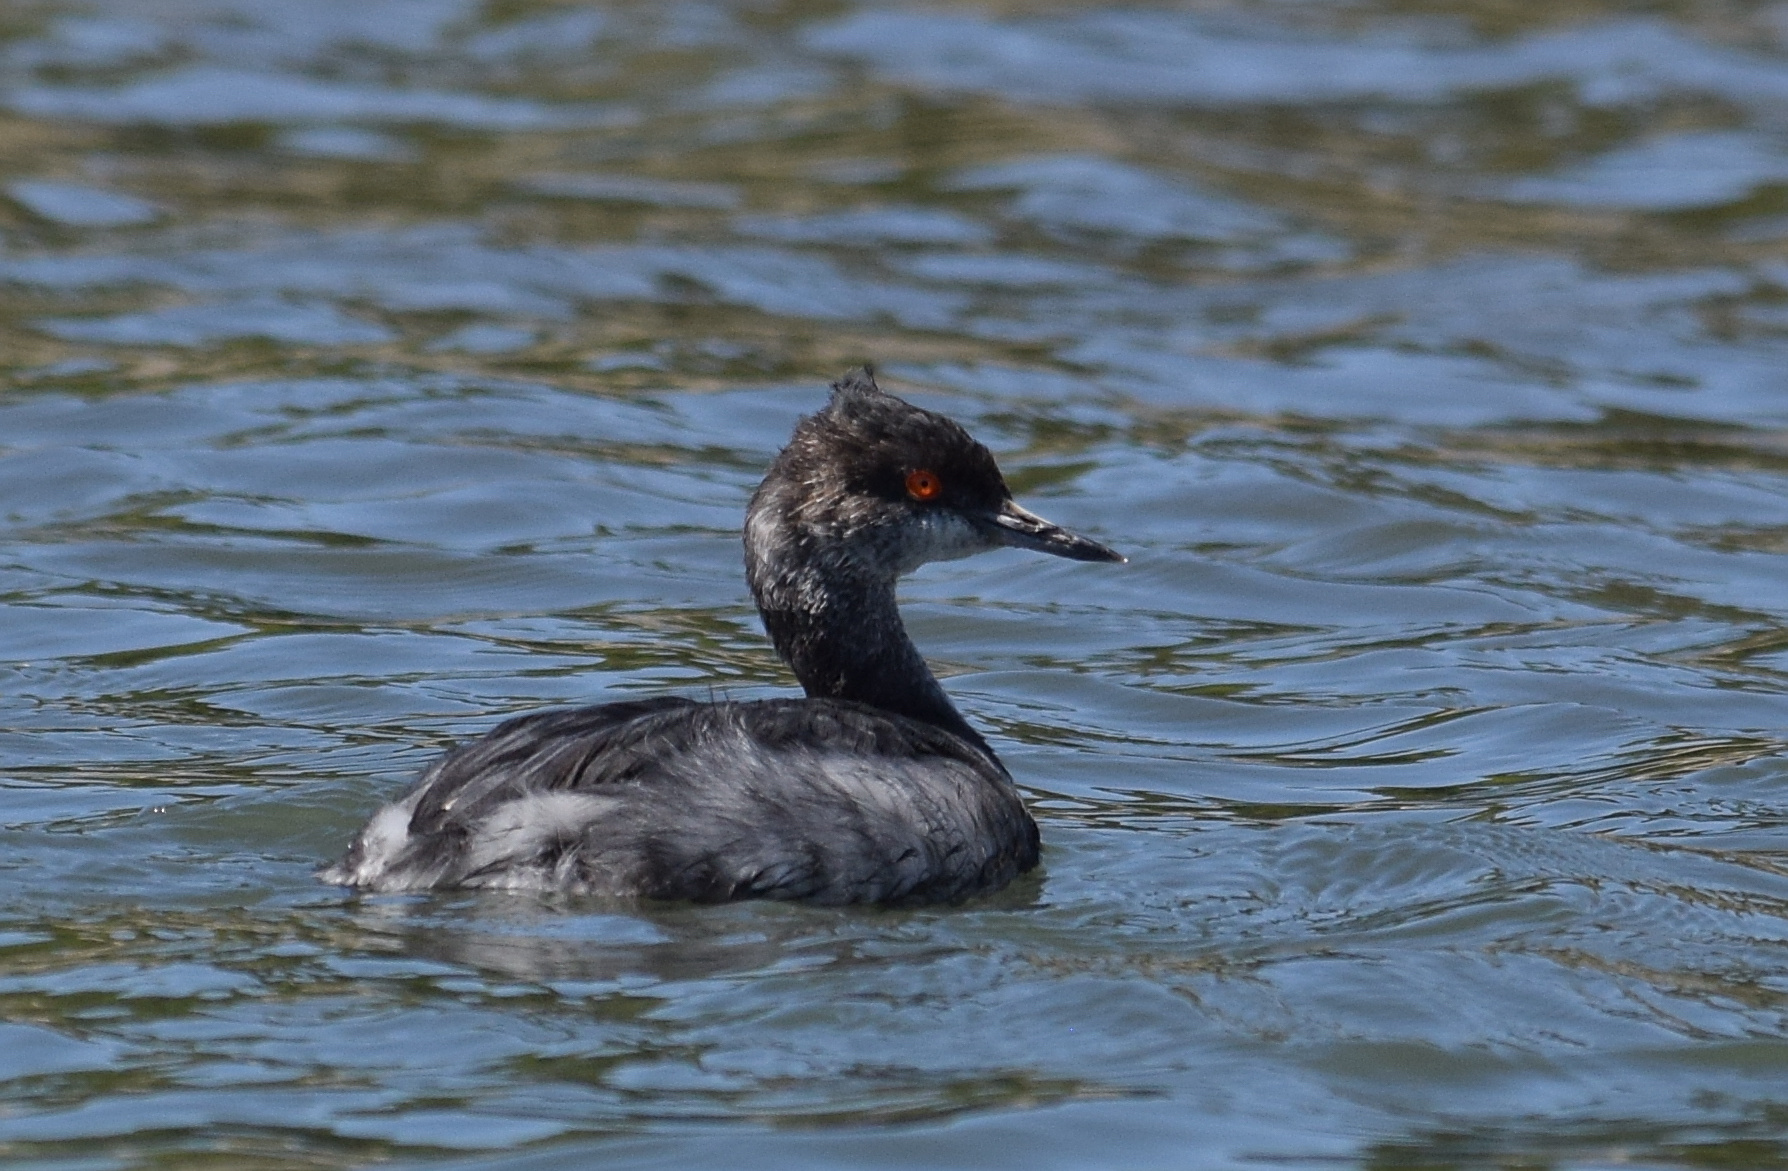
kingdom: Animalia
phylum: Chordata
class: Aves
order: Podicipediformes
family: Podicipedidae
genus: Podiceps
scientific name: Podiceps nigricollis
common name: Black-necked grebe
